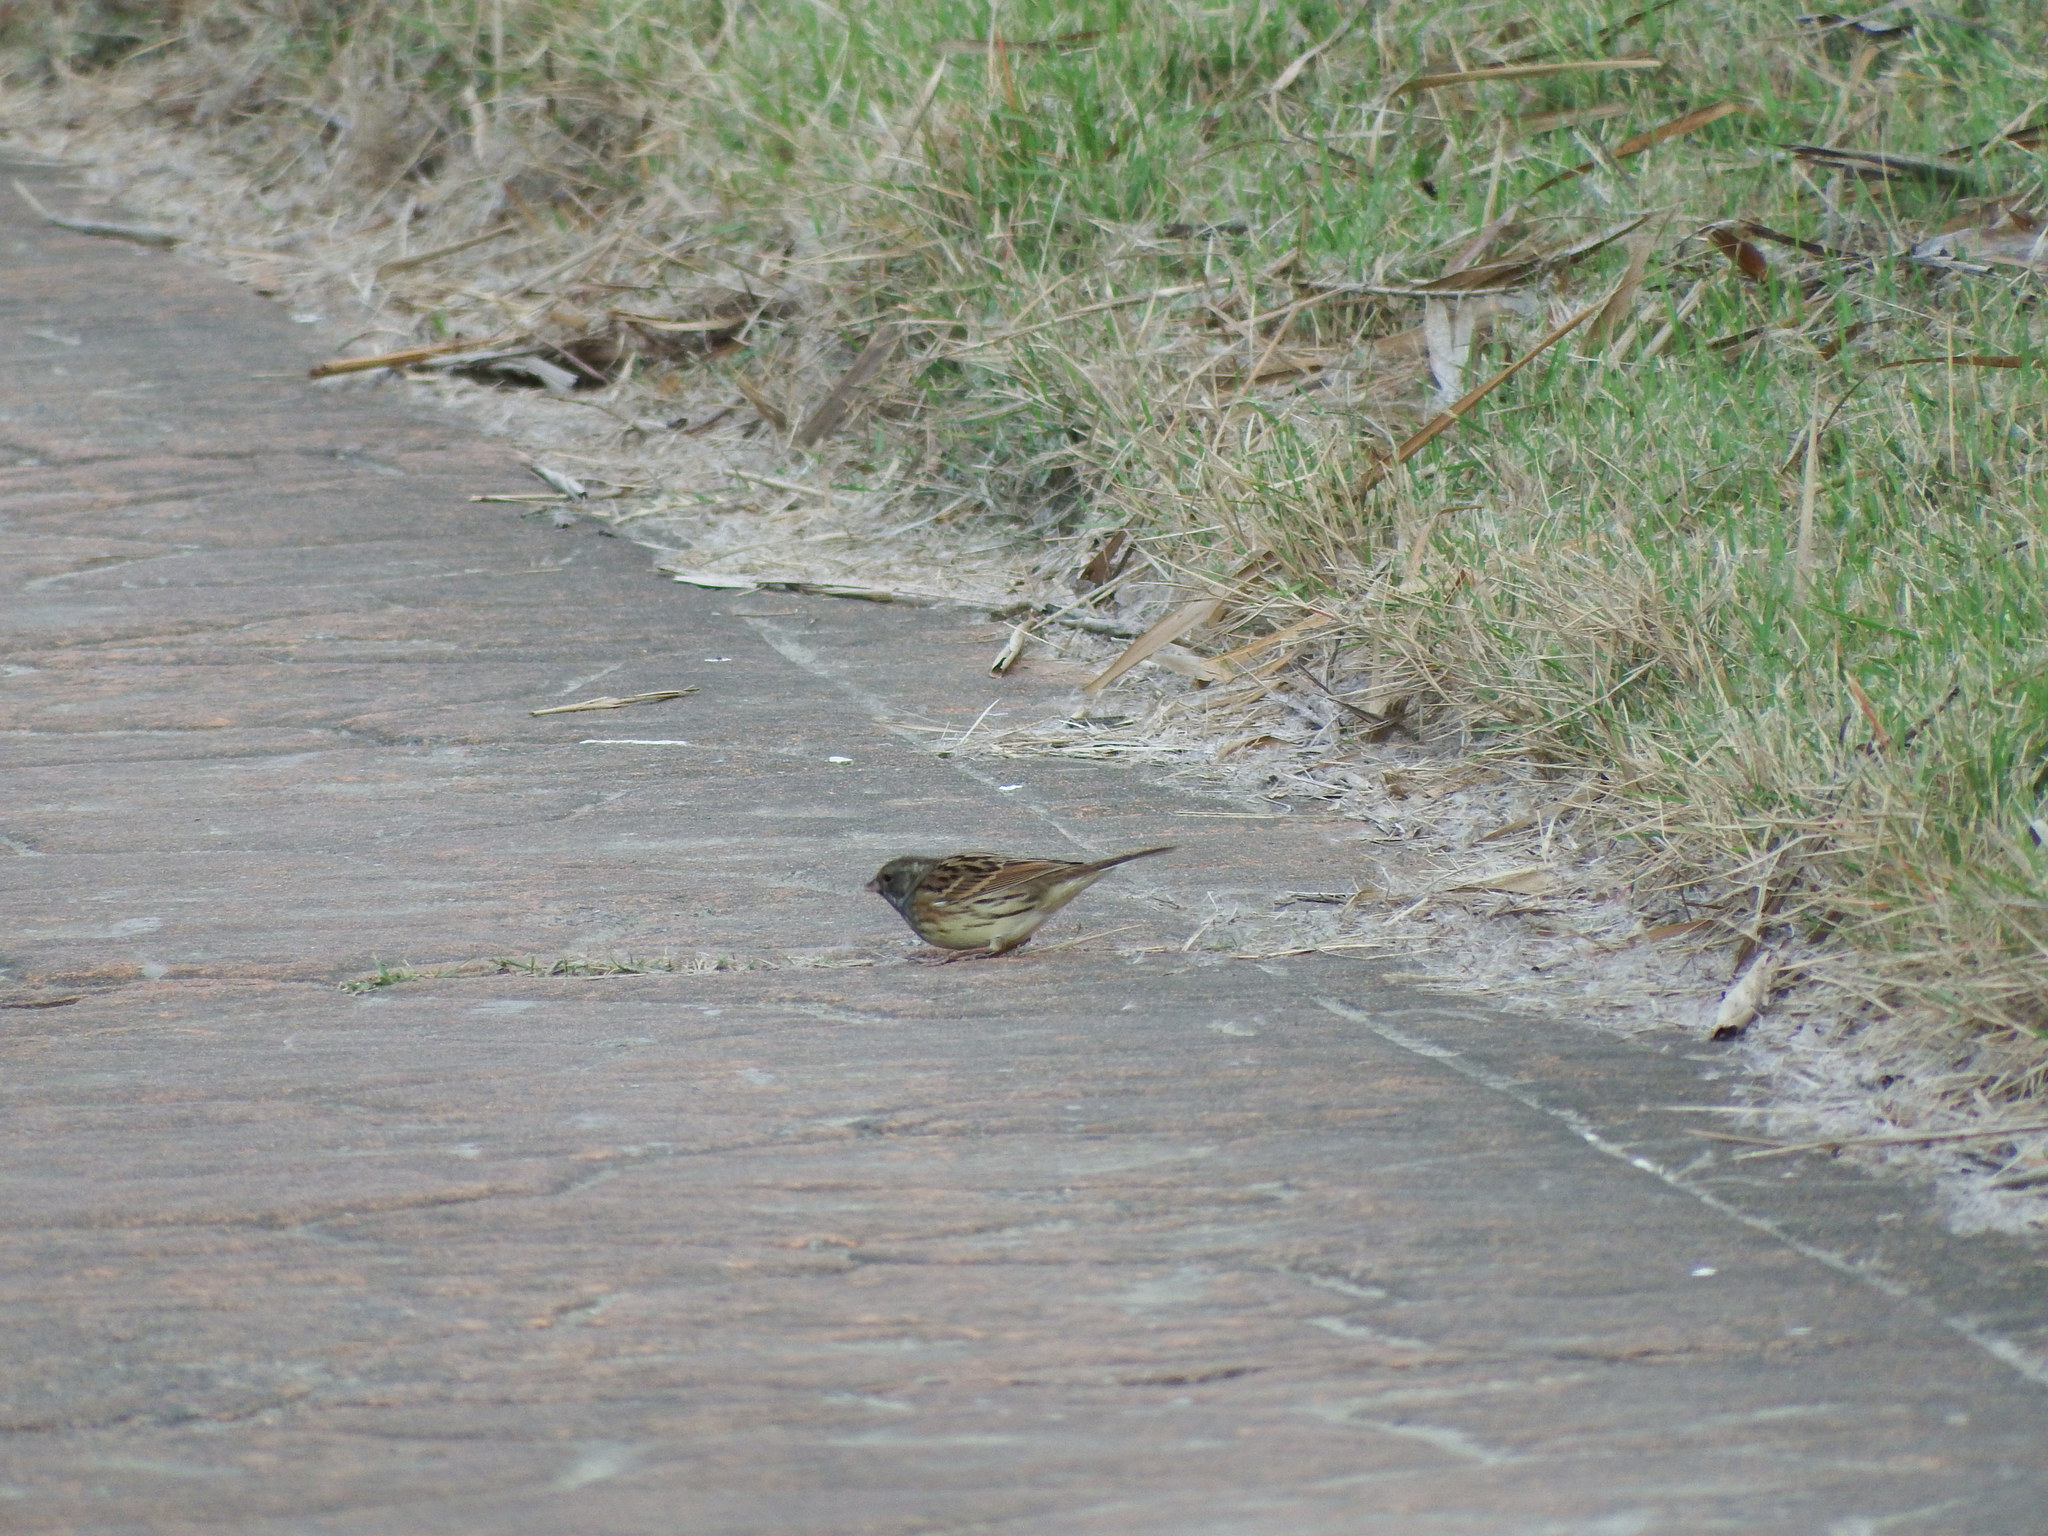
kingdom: Animalia
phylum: Chordata
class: Aves
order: Passeriformes
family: Emberizidae
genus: Emberiza
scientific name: Emberiza spodocephala
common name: Black-faced bunting
